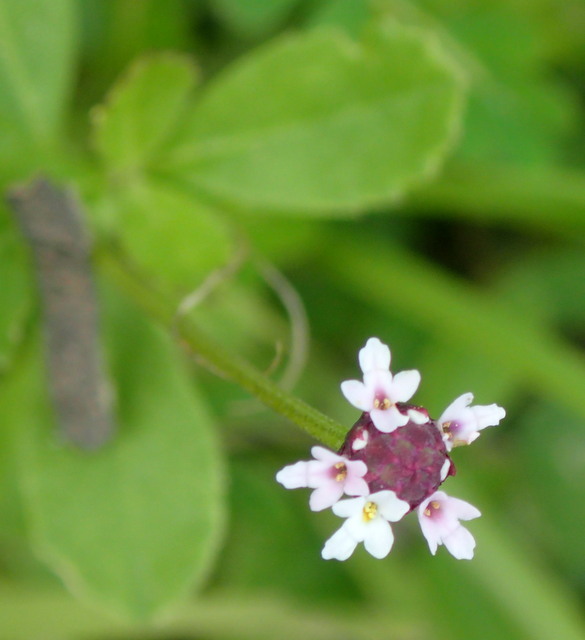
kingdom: Plantae
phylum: Tracheophyta
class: Magnoliopsida
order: Lamiales
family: Verbenaceae
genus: Phyla
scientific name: Phyla nodiflora
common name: Frogfruit
